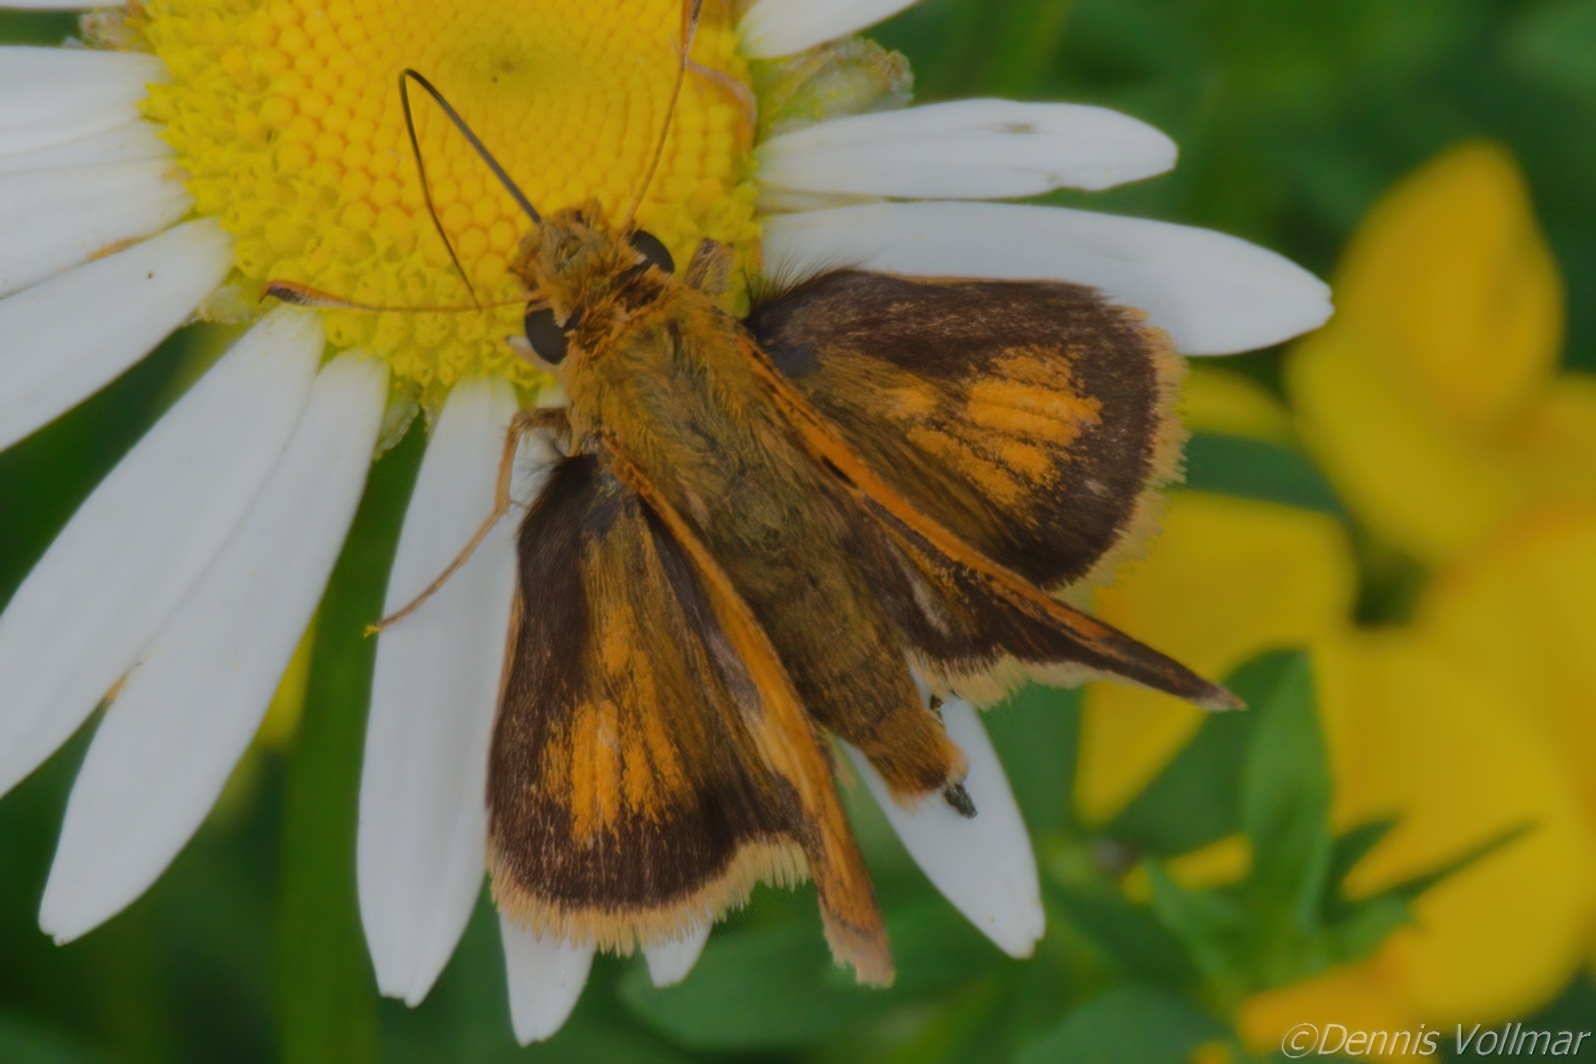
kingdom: Animalia
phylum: Arthropoda
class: Insecta
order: Lepidoptera
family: Hesperiidae
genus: Polites
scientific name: Polites coras
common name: Peck's skipper
